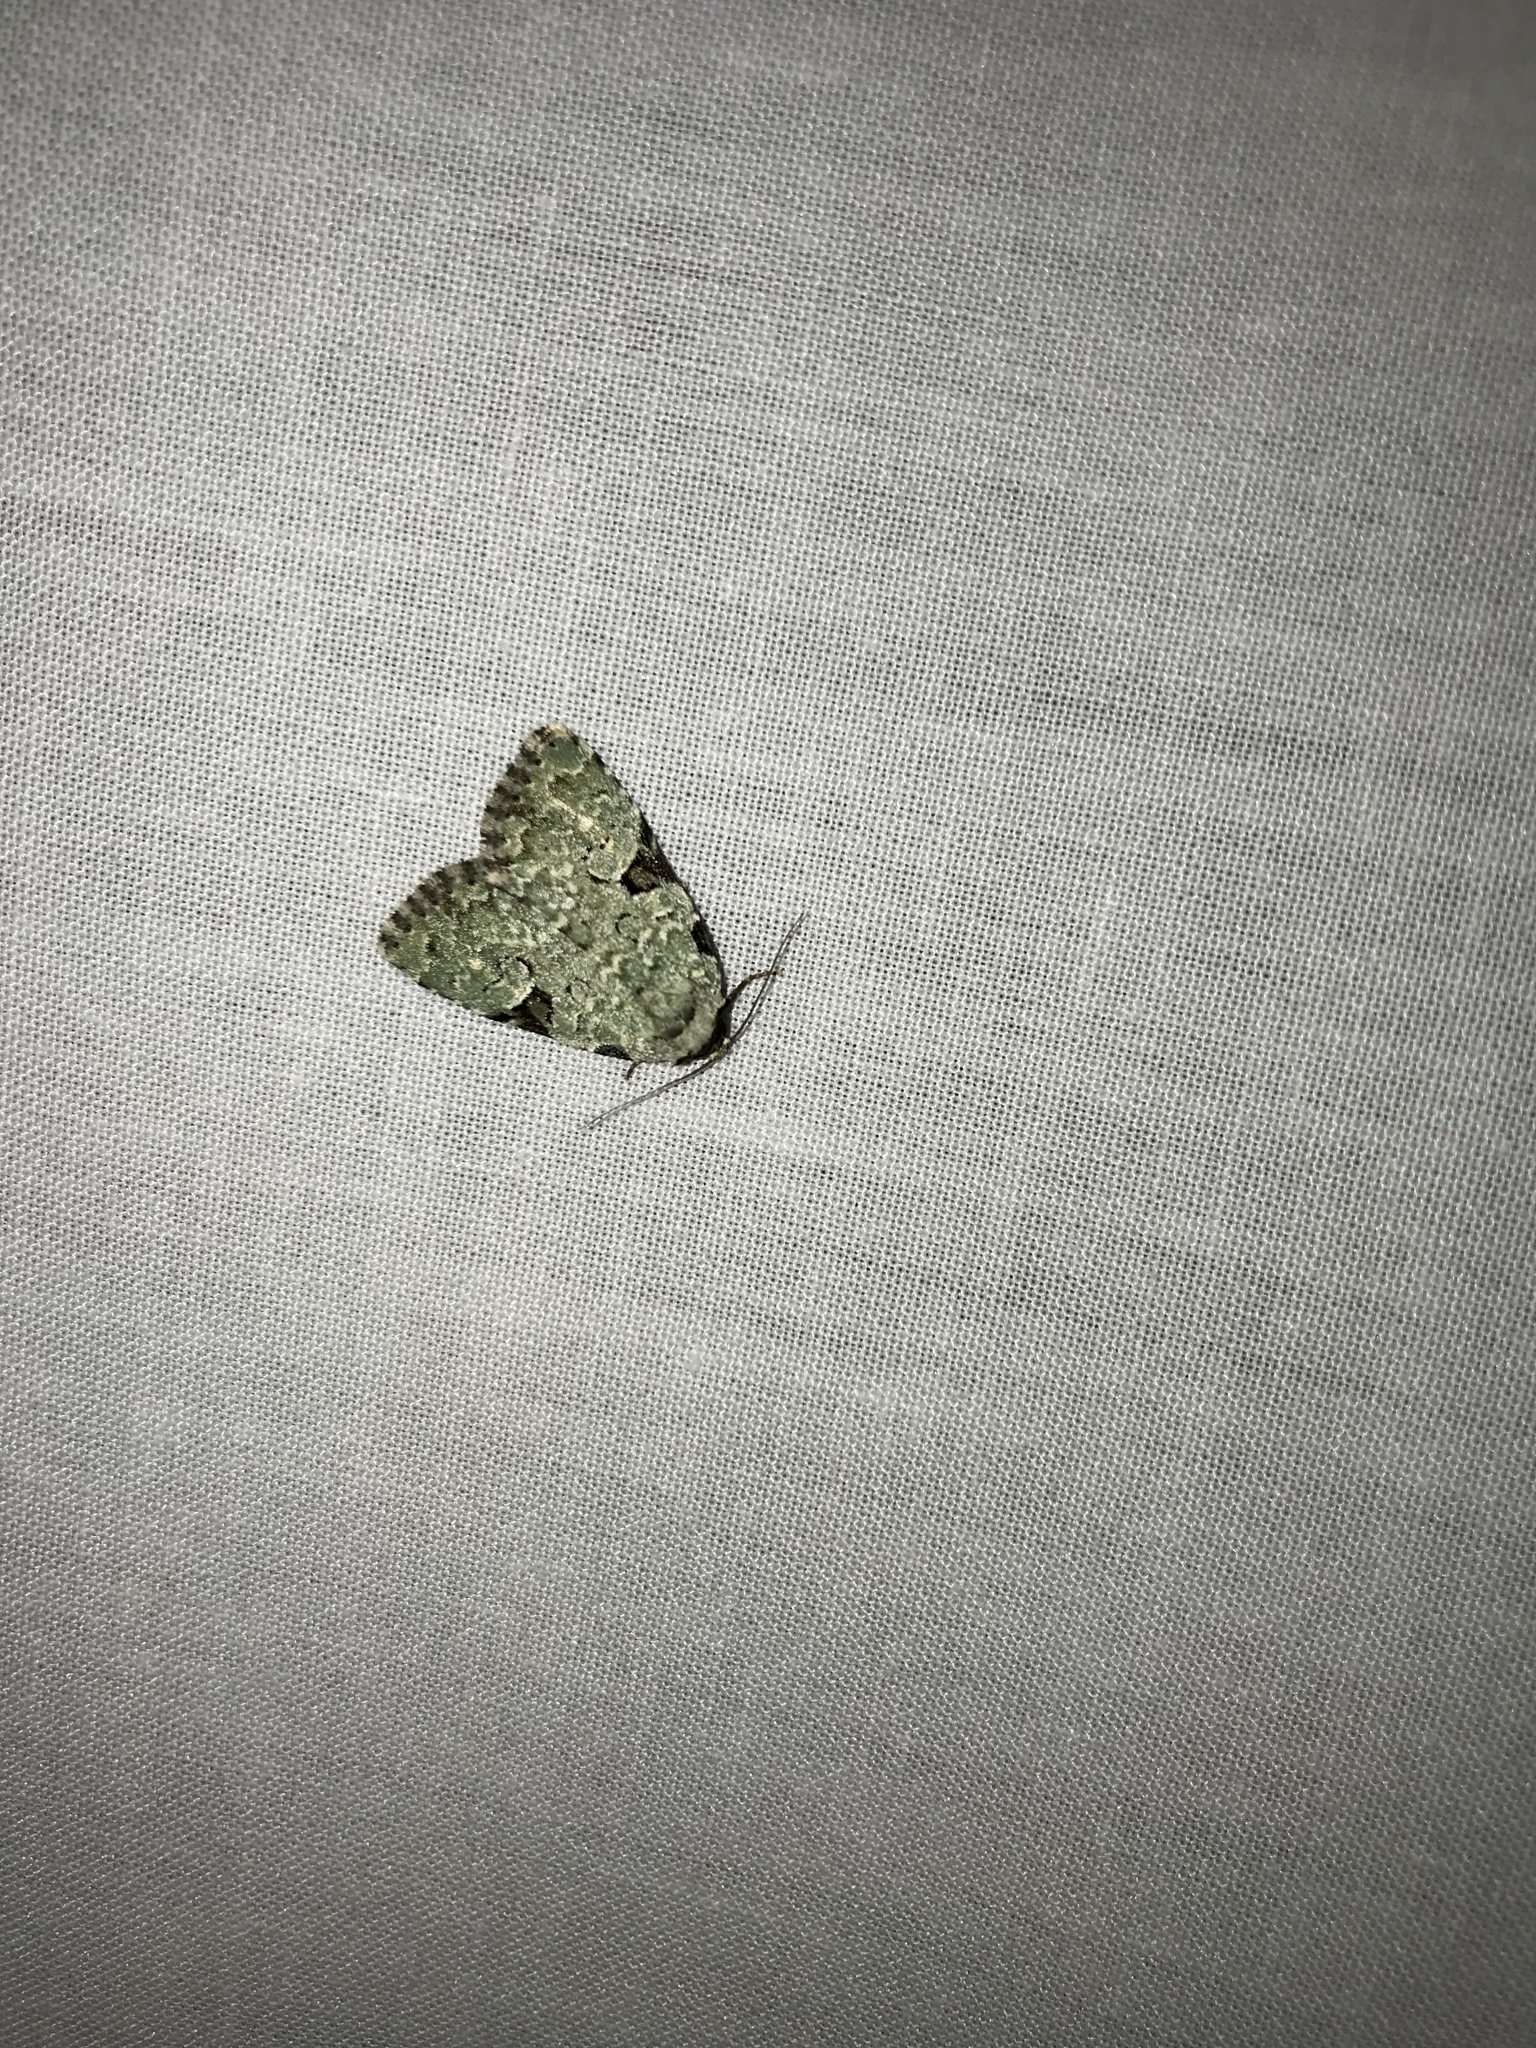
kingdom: Animalia
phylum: Arthropoda
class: Insecta
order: Lepidoptera
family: Noctuidae
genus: Leuconycta
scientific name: Leuconycta diphteroides
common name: Green leuconycta moth
